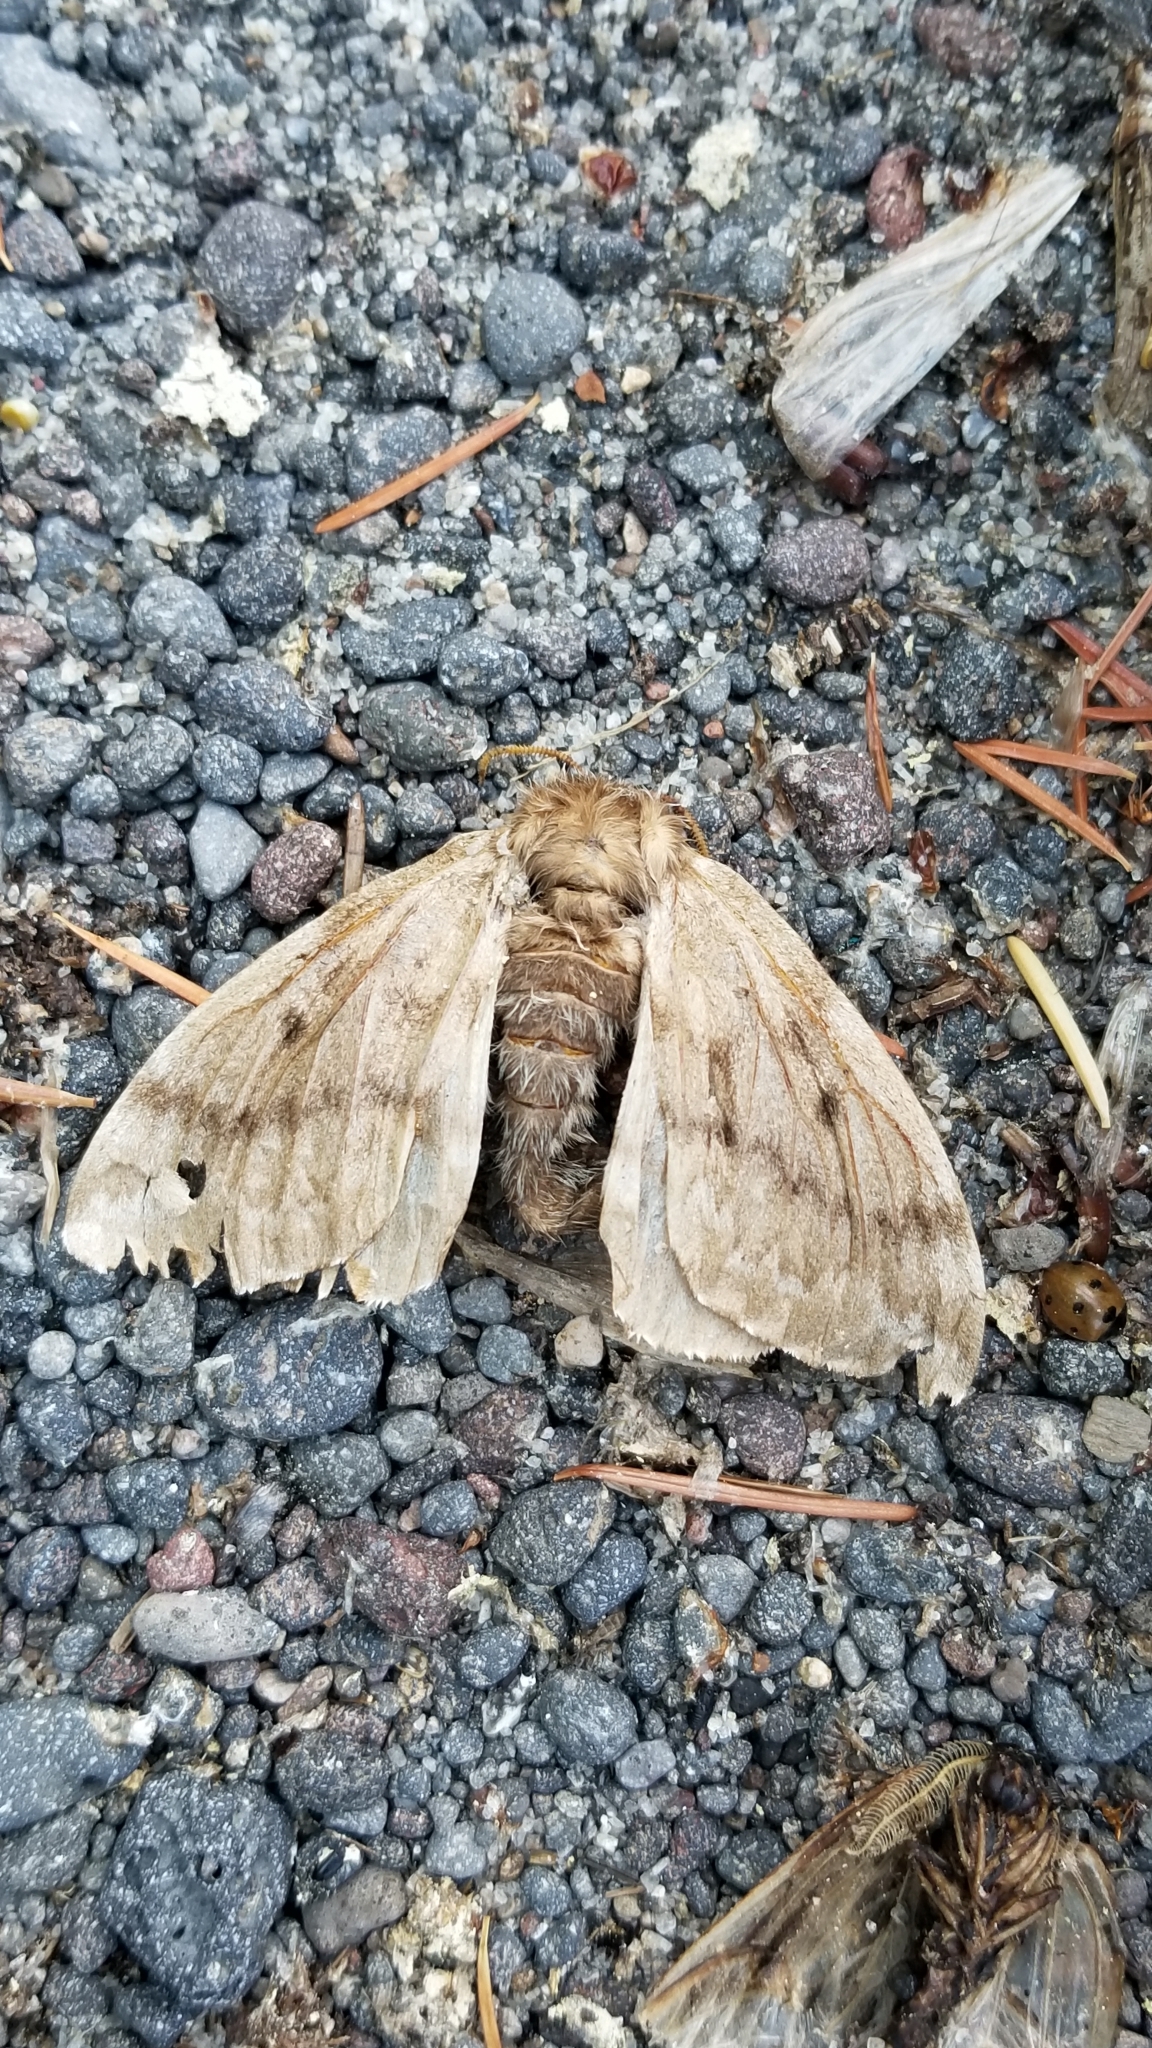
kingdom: Animalia
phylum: Arthropoda
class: Insecta
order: Lepidoptera
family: Saturniidae
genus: Coloradia
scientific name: Coloradia pandora
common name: Pandora pinemoth
